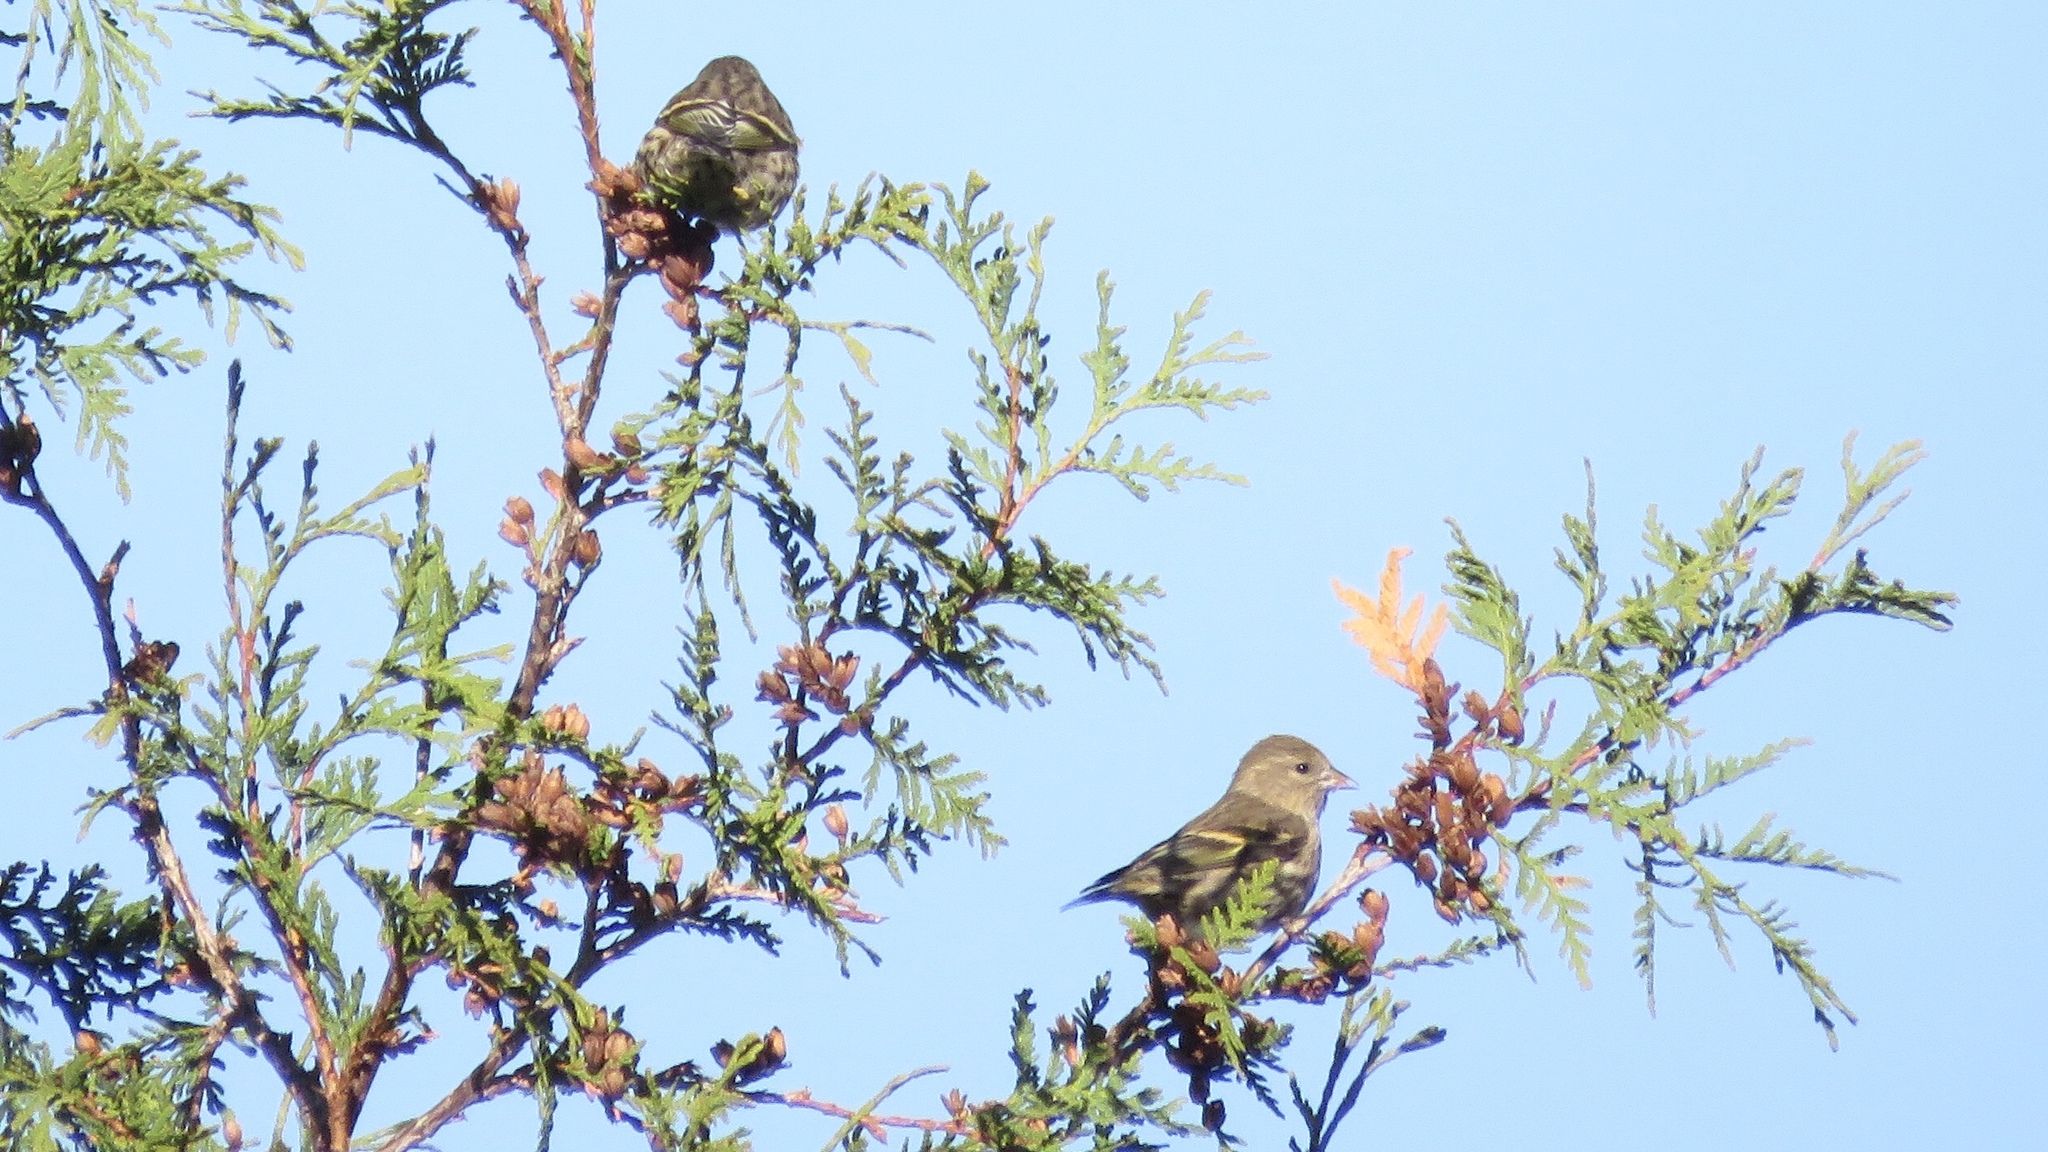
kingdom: Animalia
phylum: Chordata
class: Aves
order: Passeriformes
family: Fringillidae
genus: Spinus
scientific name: Spinus pinus
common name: Pine siskin
